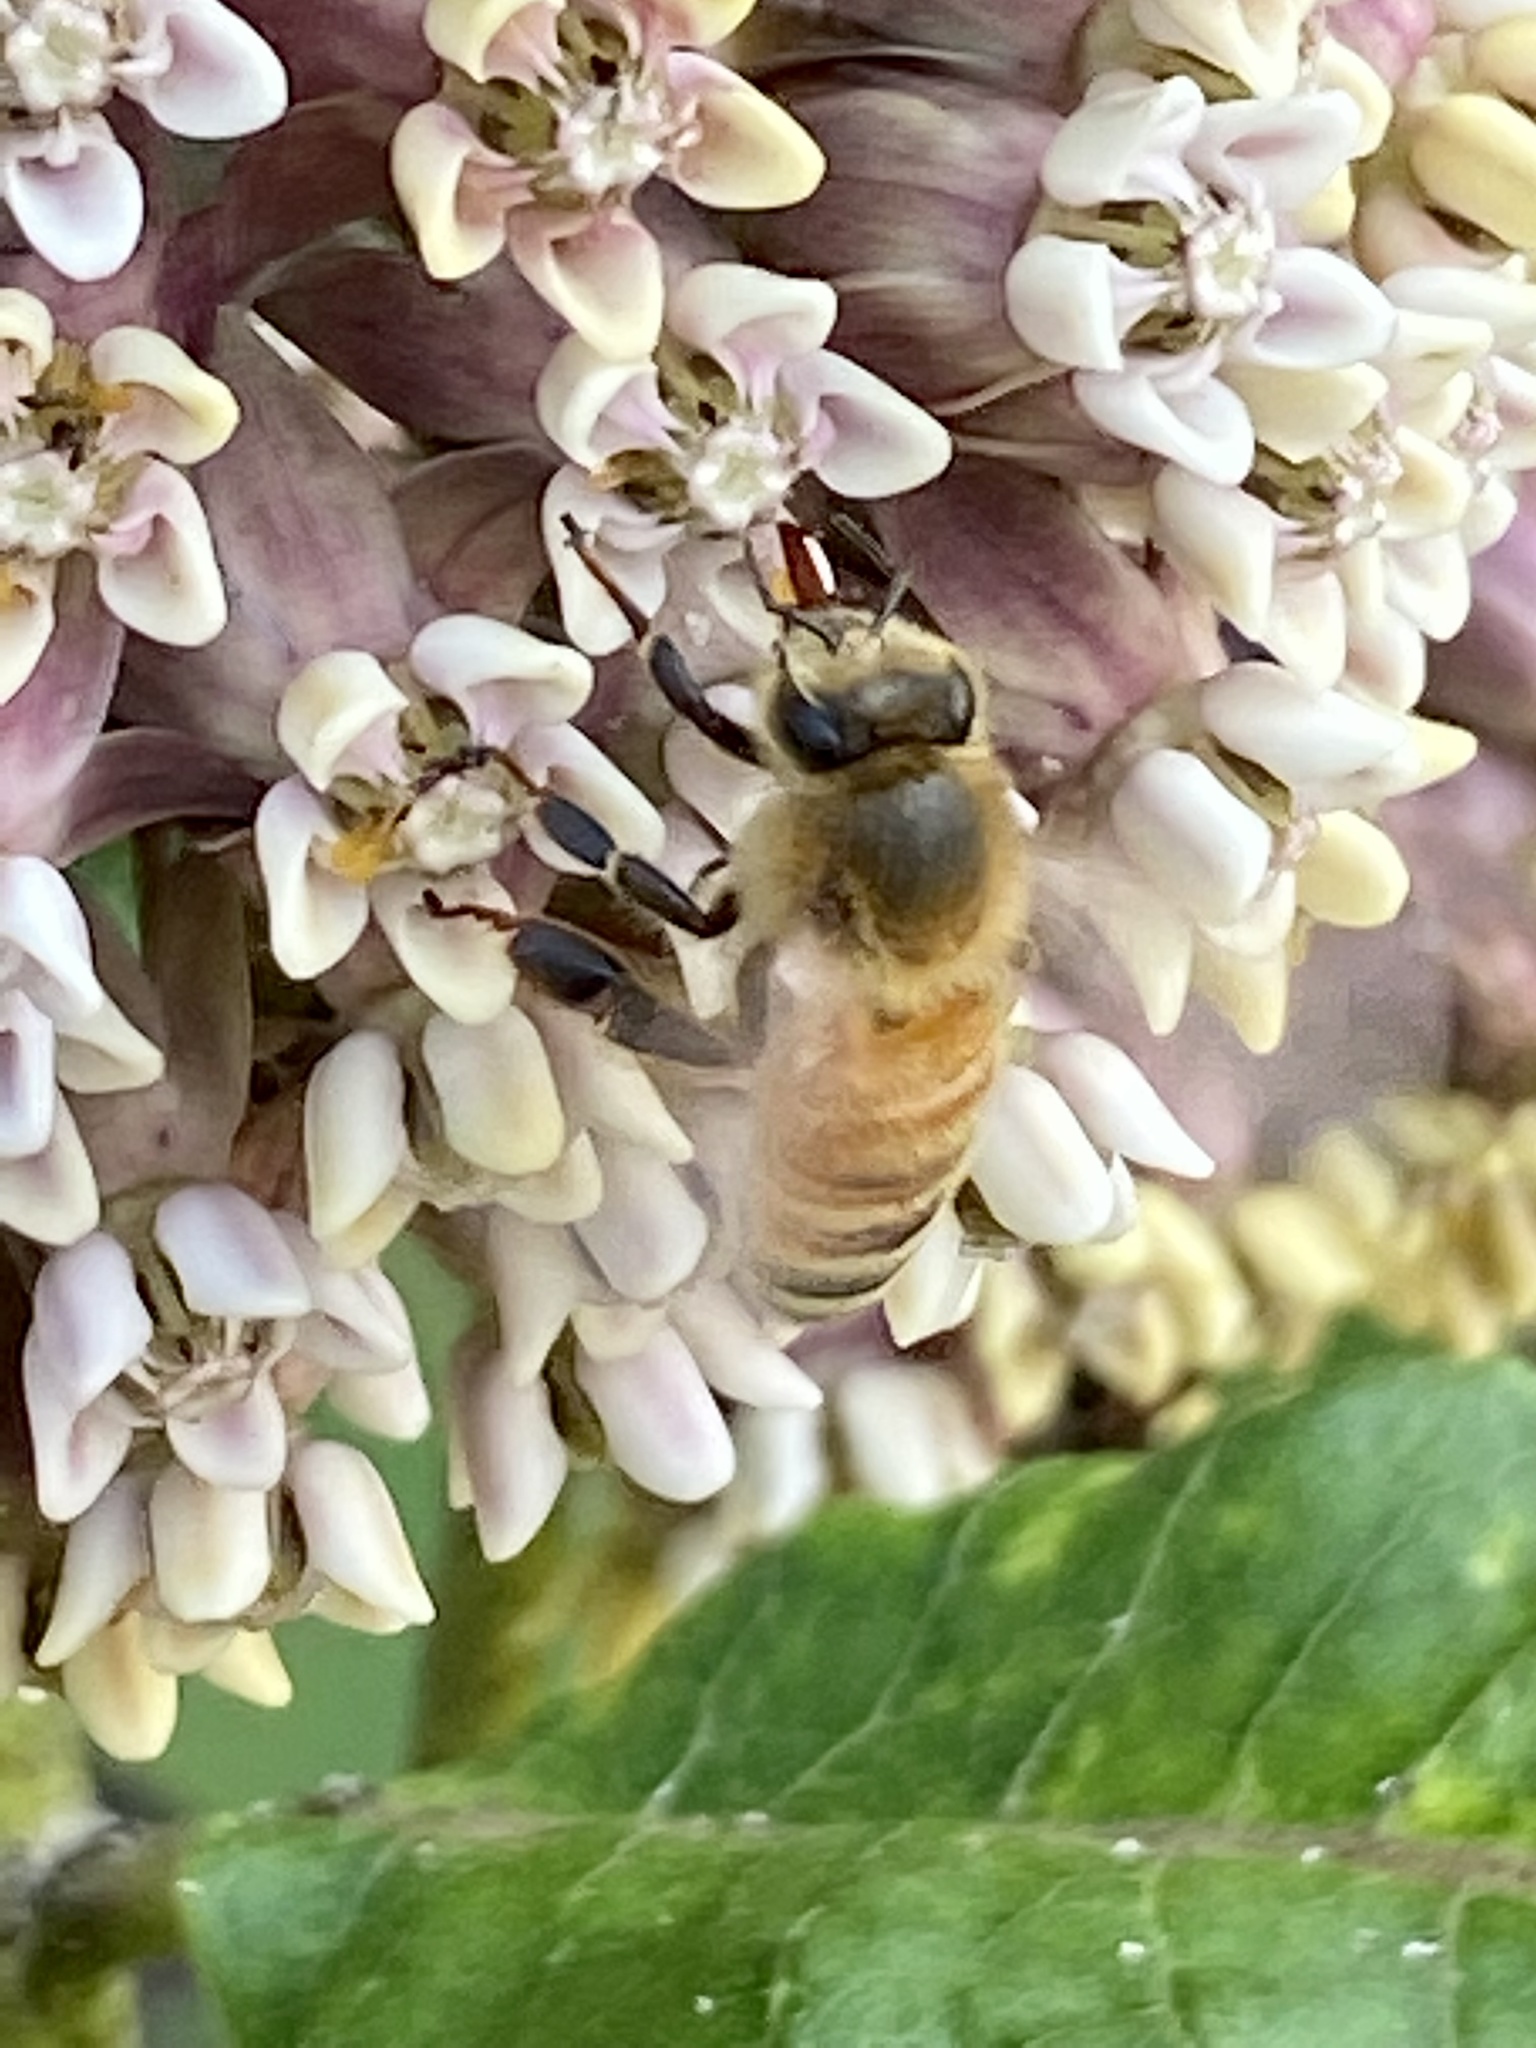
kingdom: Animalia
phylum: Arthropoda
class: Insecta
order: Hymenoptera
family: Apidae
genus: Apis
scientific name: Apis mellifera
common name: Honey bee
